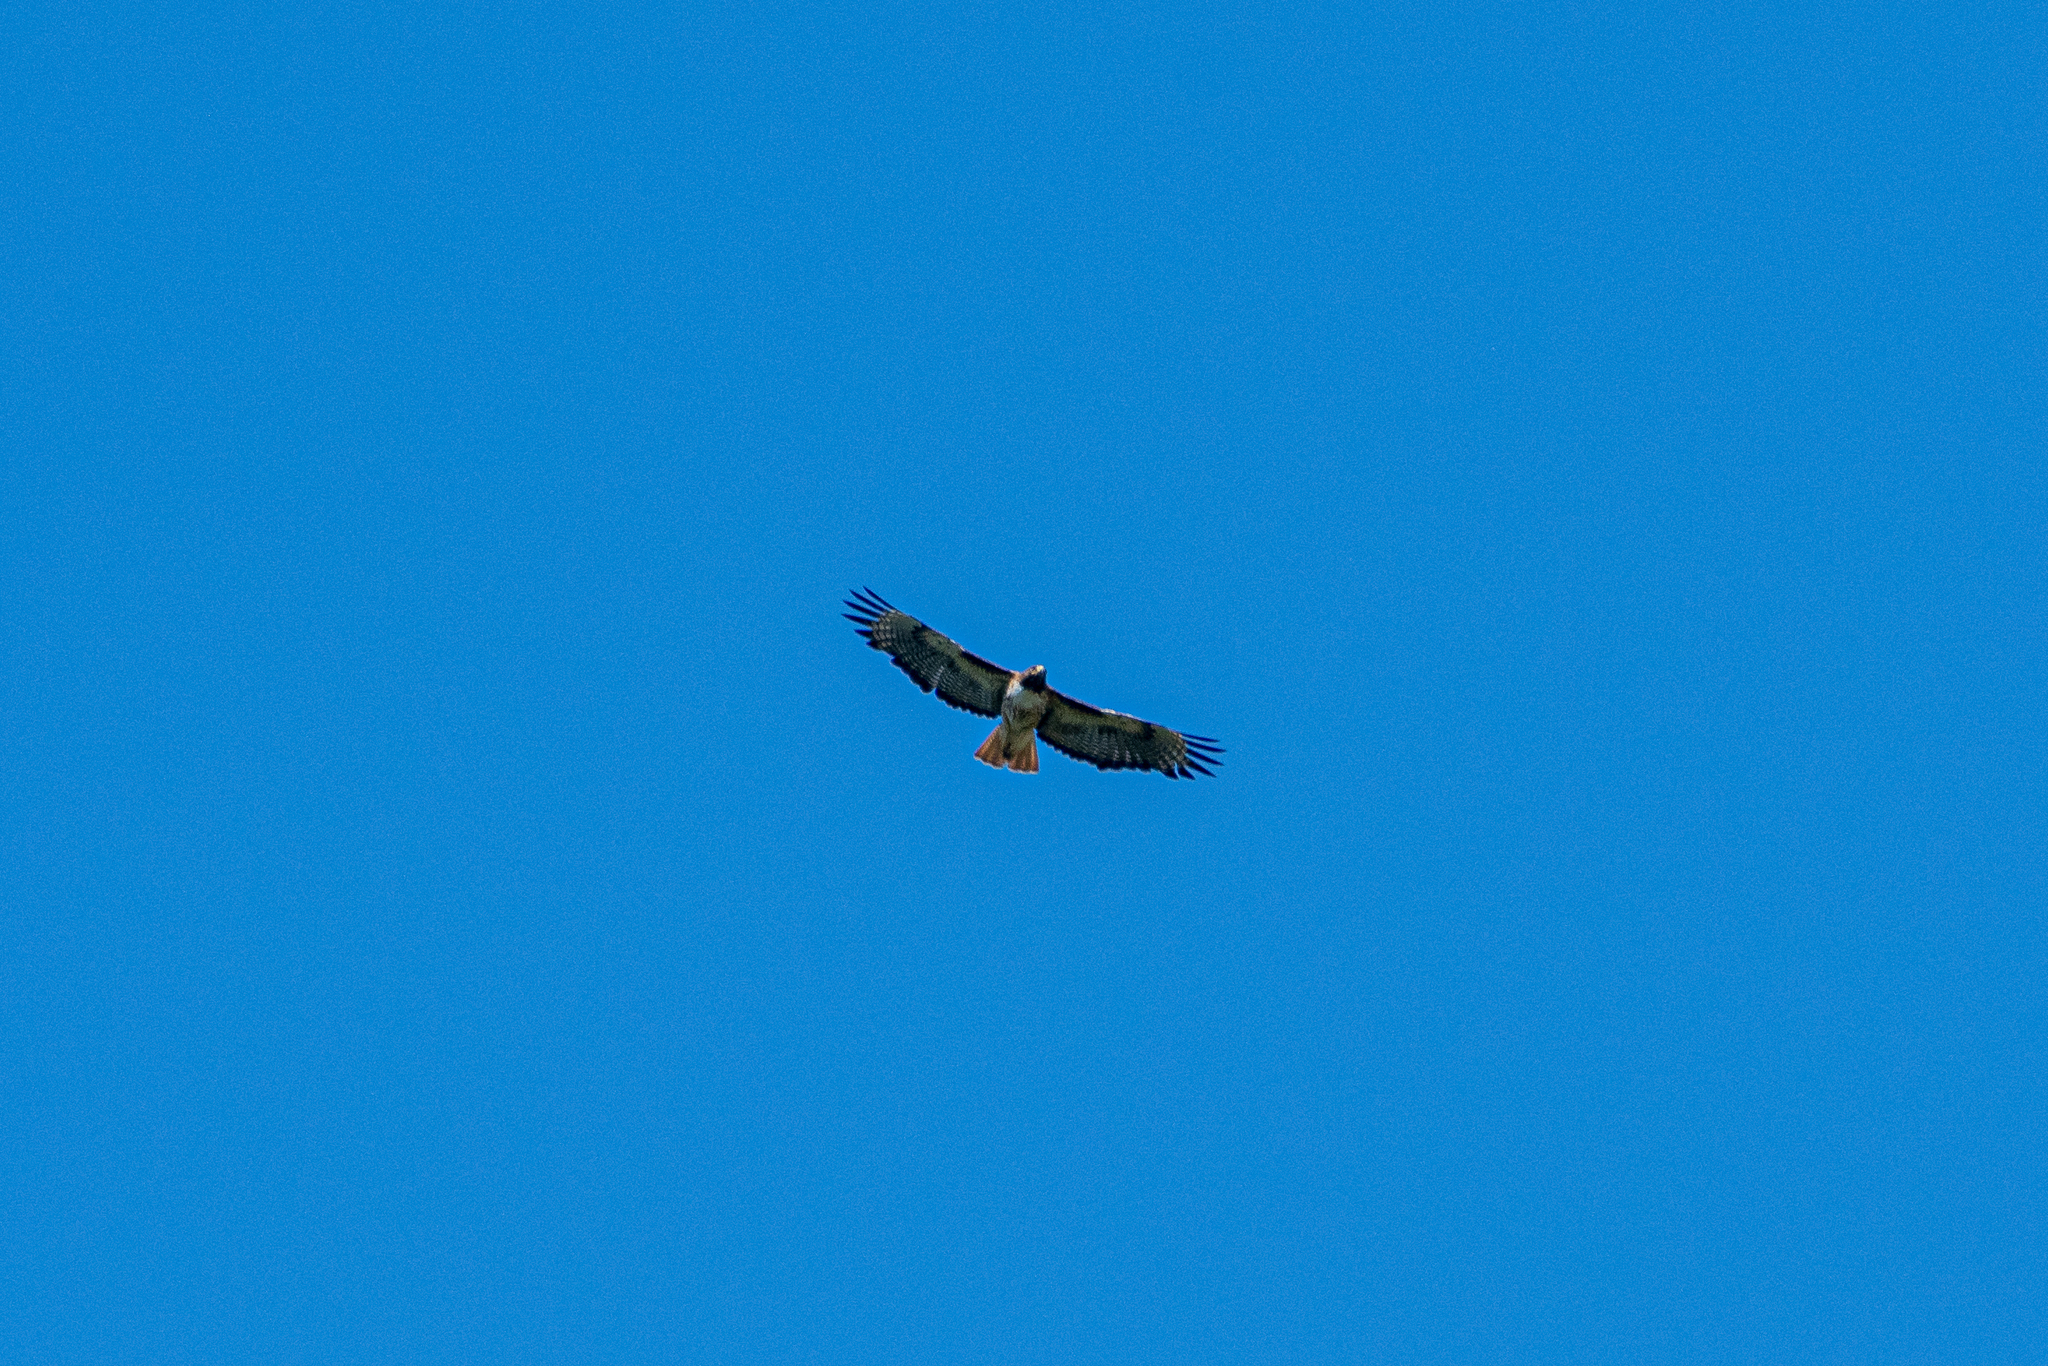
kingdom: Animalia
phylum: Chordata
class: Aves
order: Accipitriformes
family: Accipitridae
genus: Buteo
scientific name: Buteo jamaicensis
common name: Red-tailed hawk
